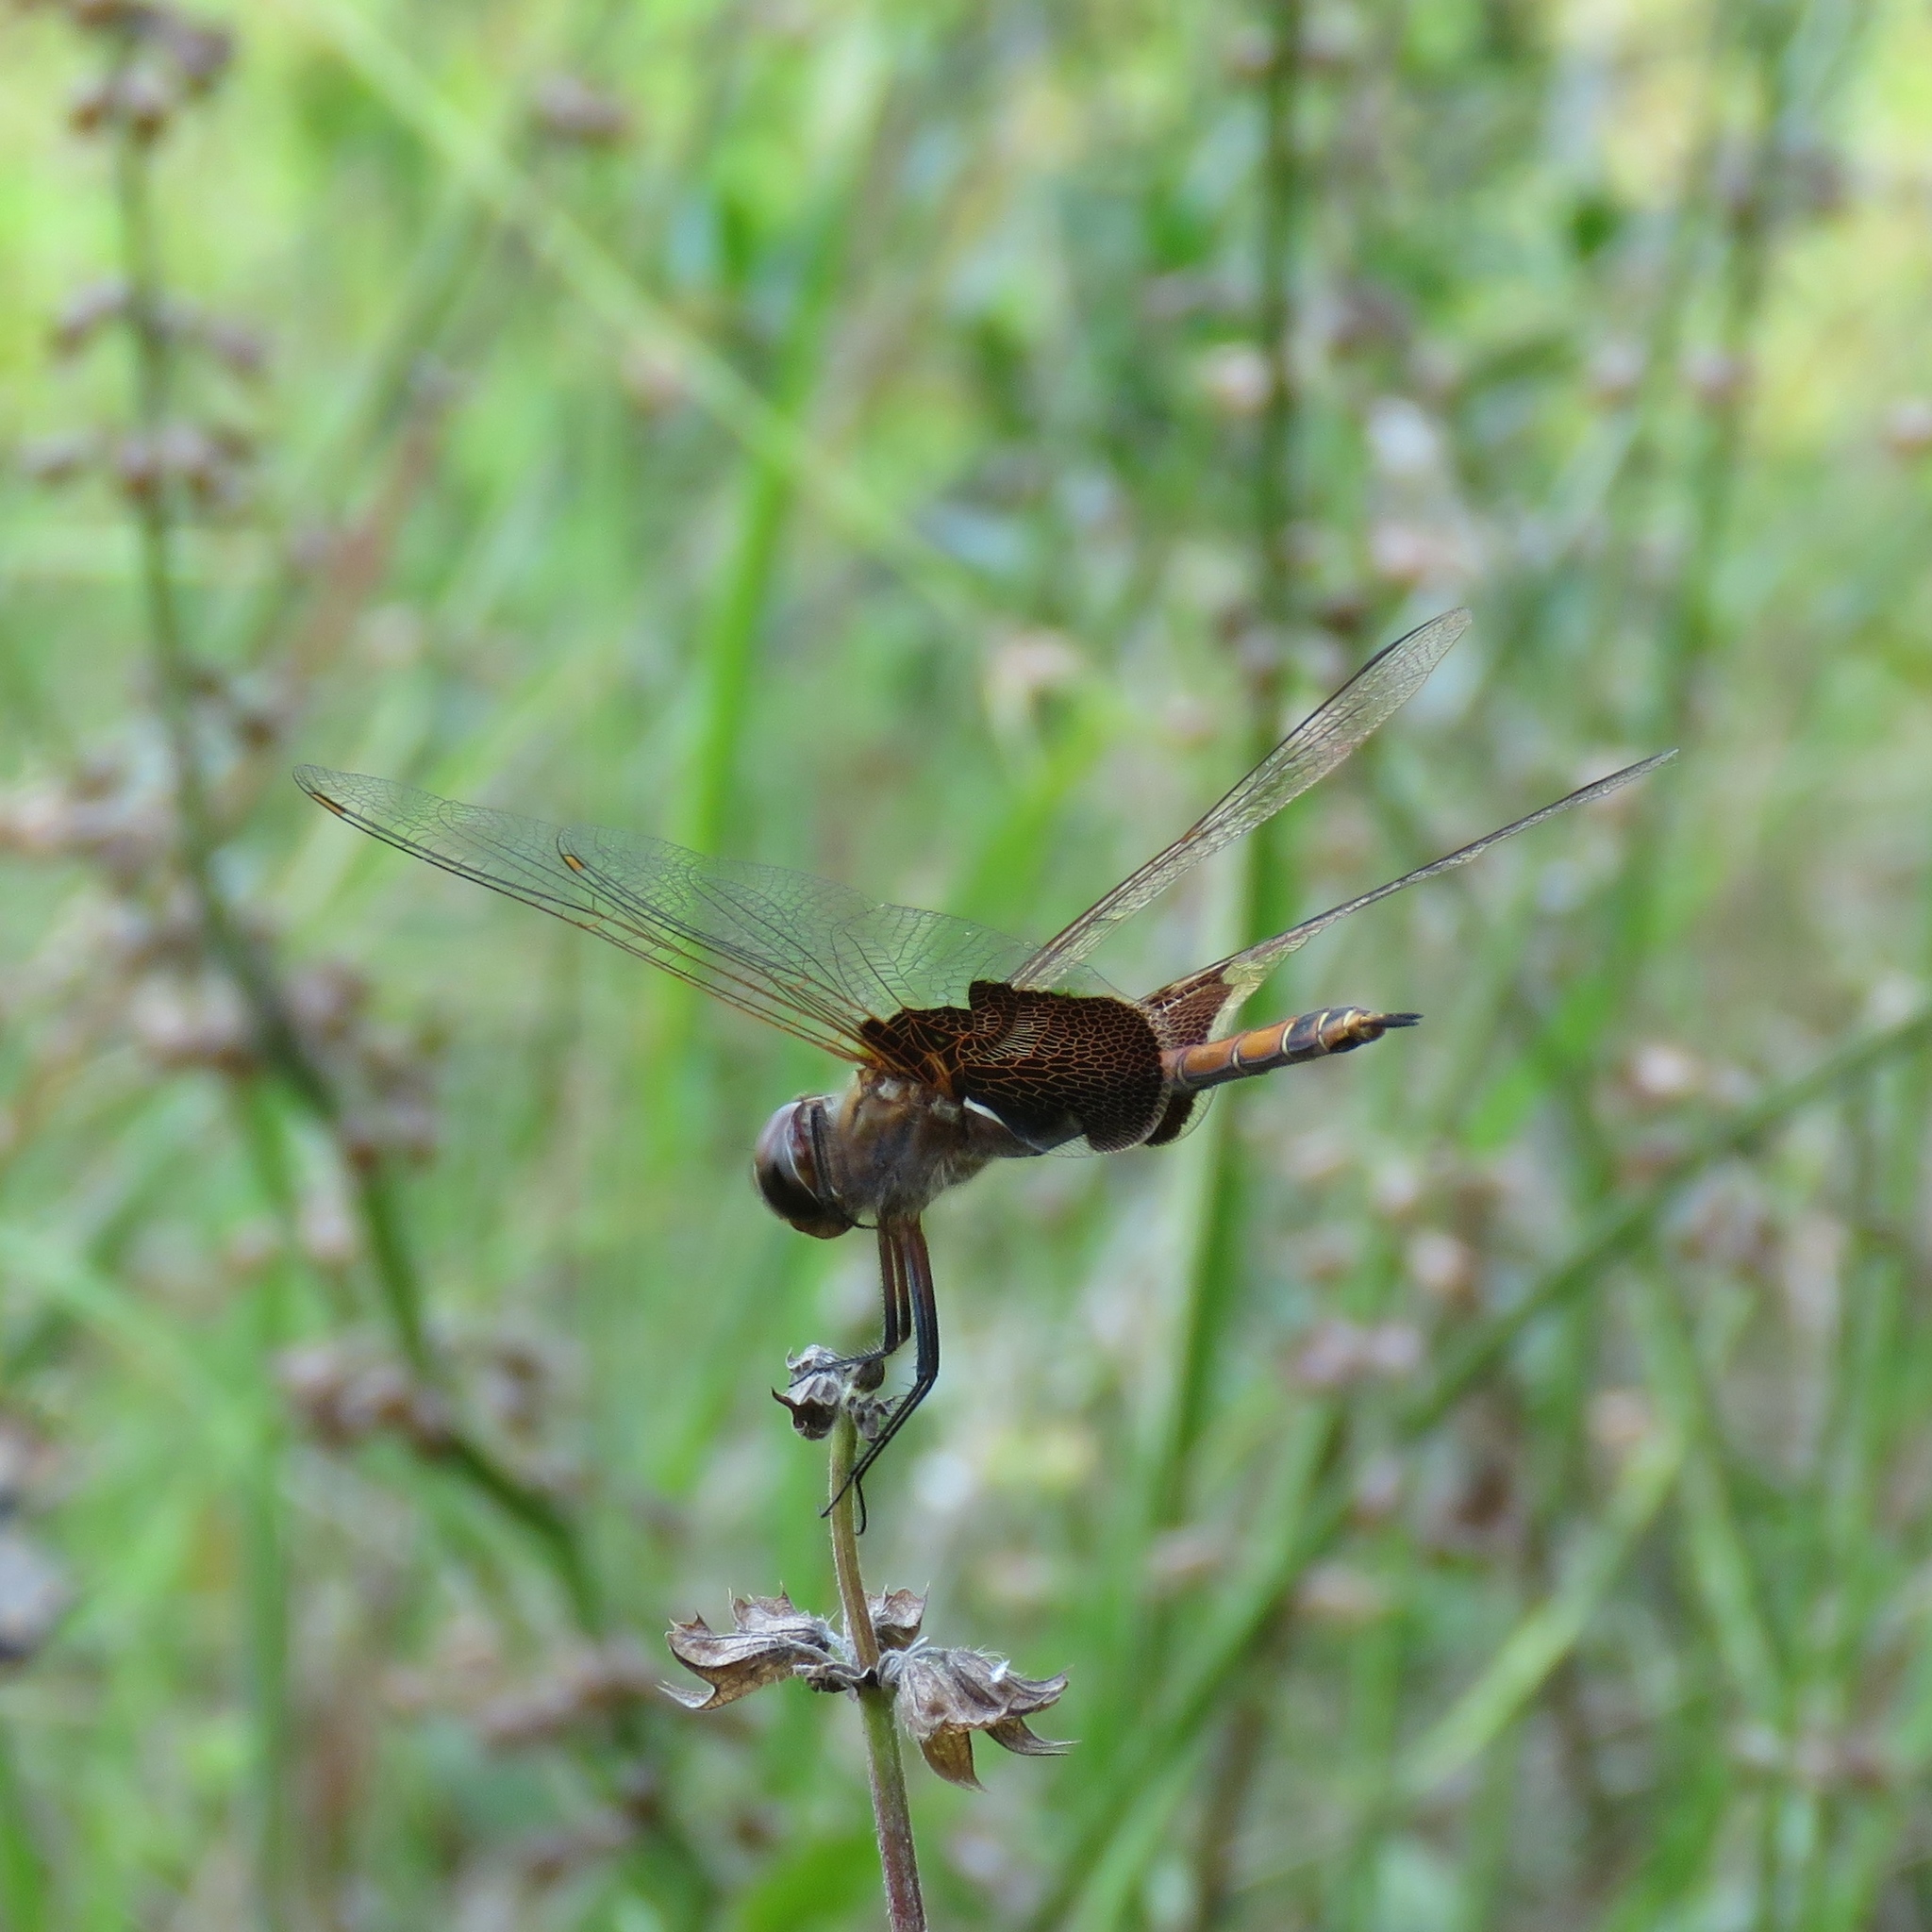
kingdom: Animalia
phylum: Arthropoda
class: Insecta
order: Odonata
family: Libellulidae
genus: Tramea
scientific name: Tramea carolina
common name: Carolina saddlebags
